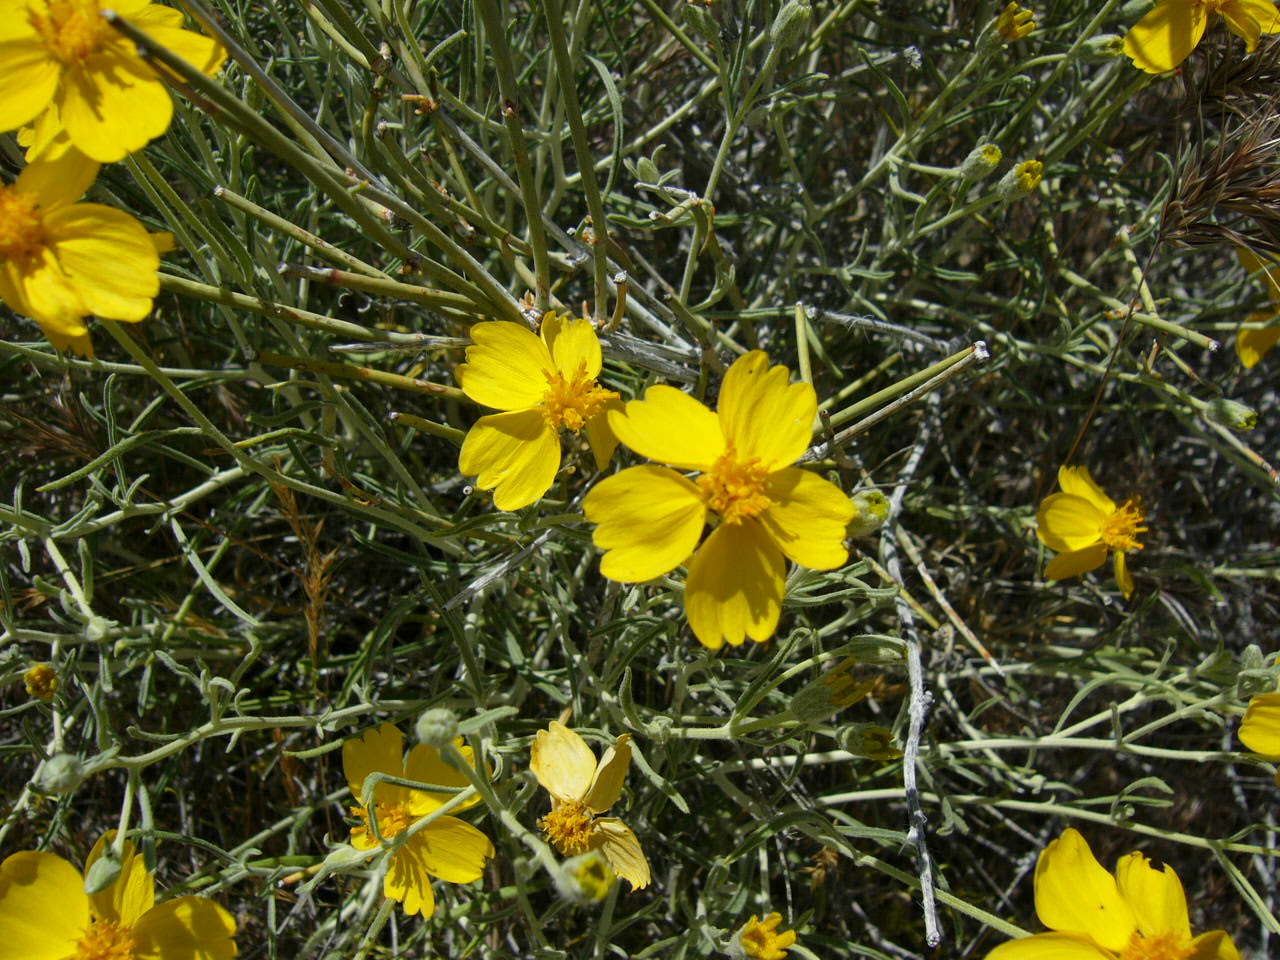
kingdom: Plantae
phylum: Tracheophyta
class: Magnoliopsida
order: Asterales
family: Asteraceae
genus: Psilostrophe
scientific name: Psilostrophe cooperi
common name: White-stem paper-flower
